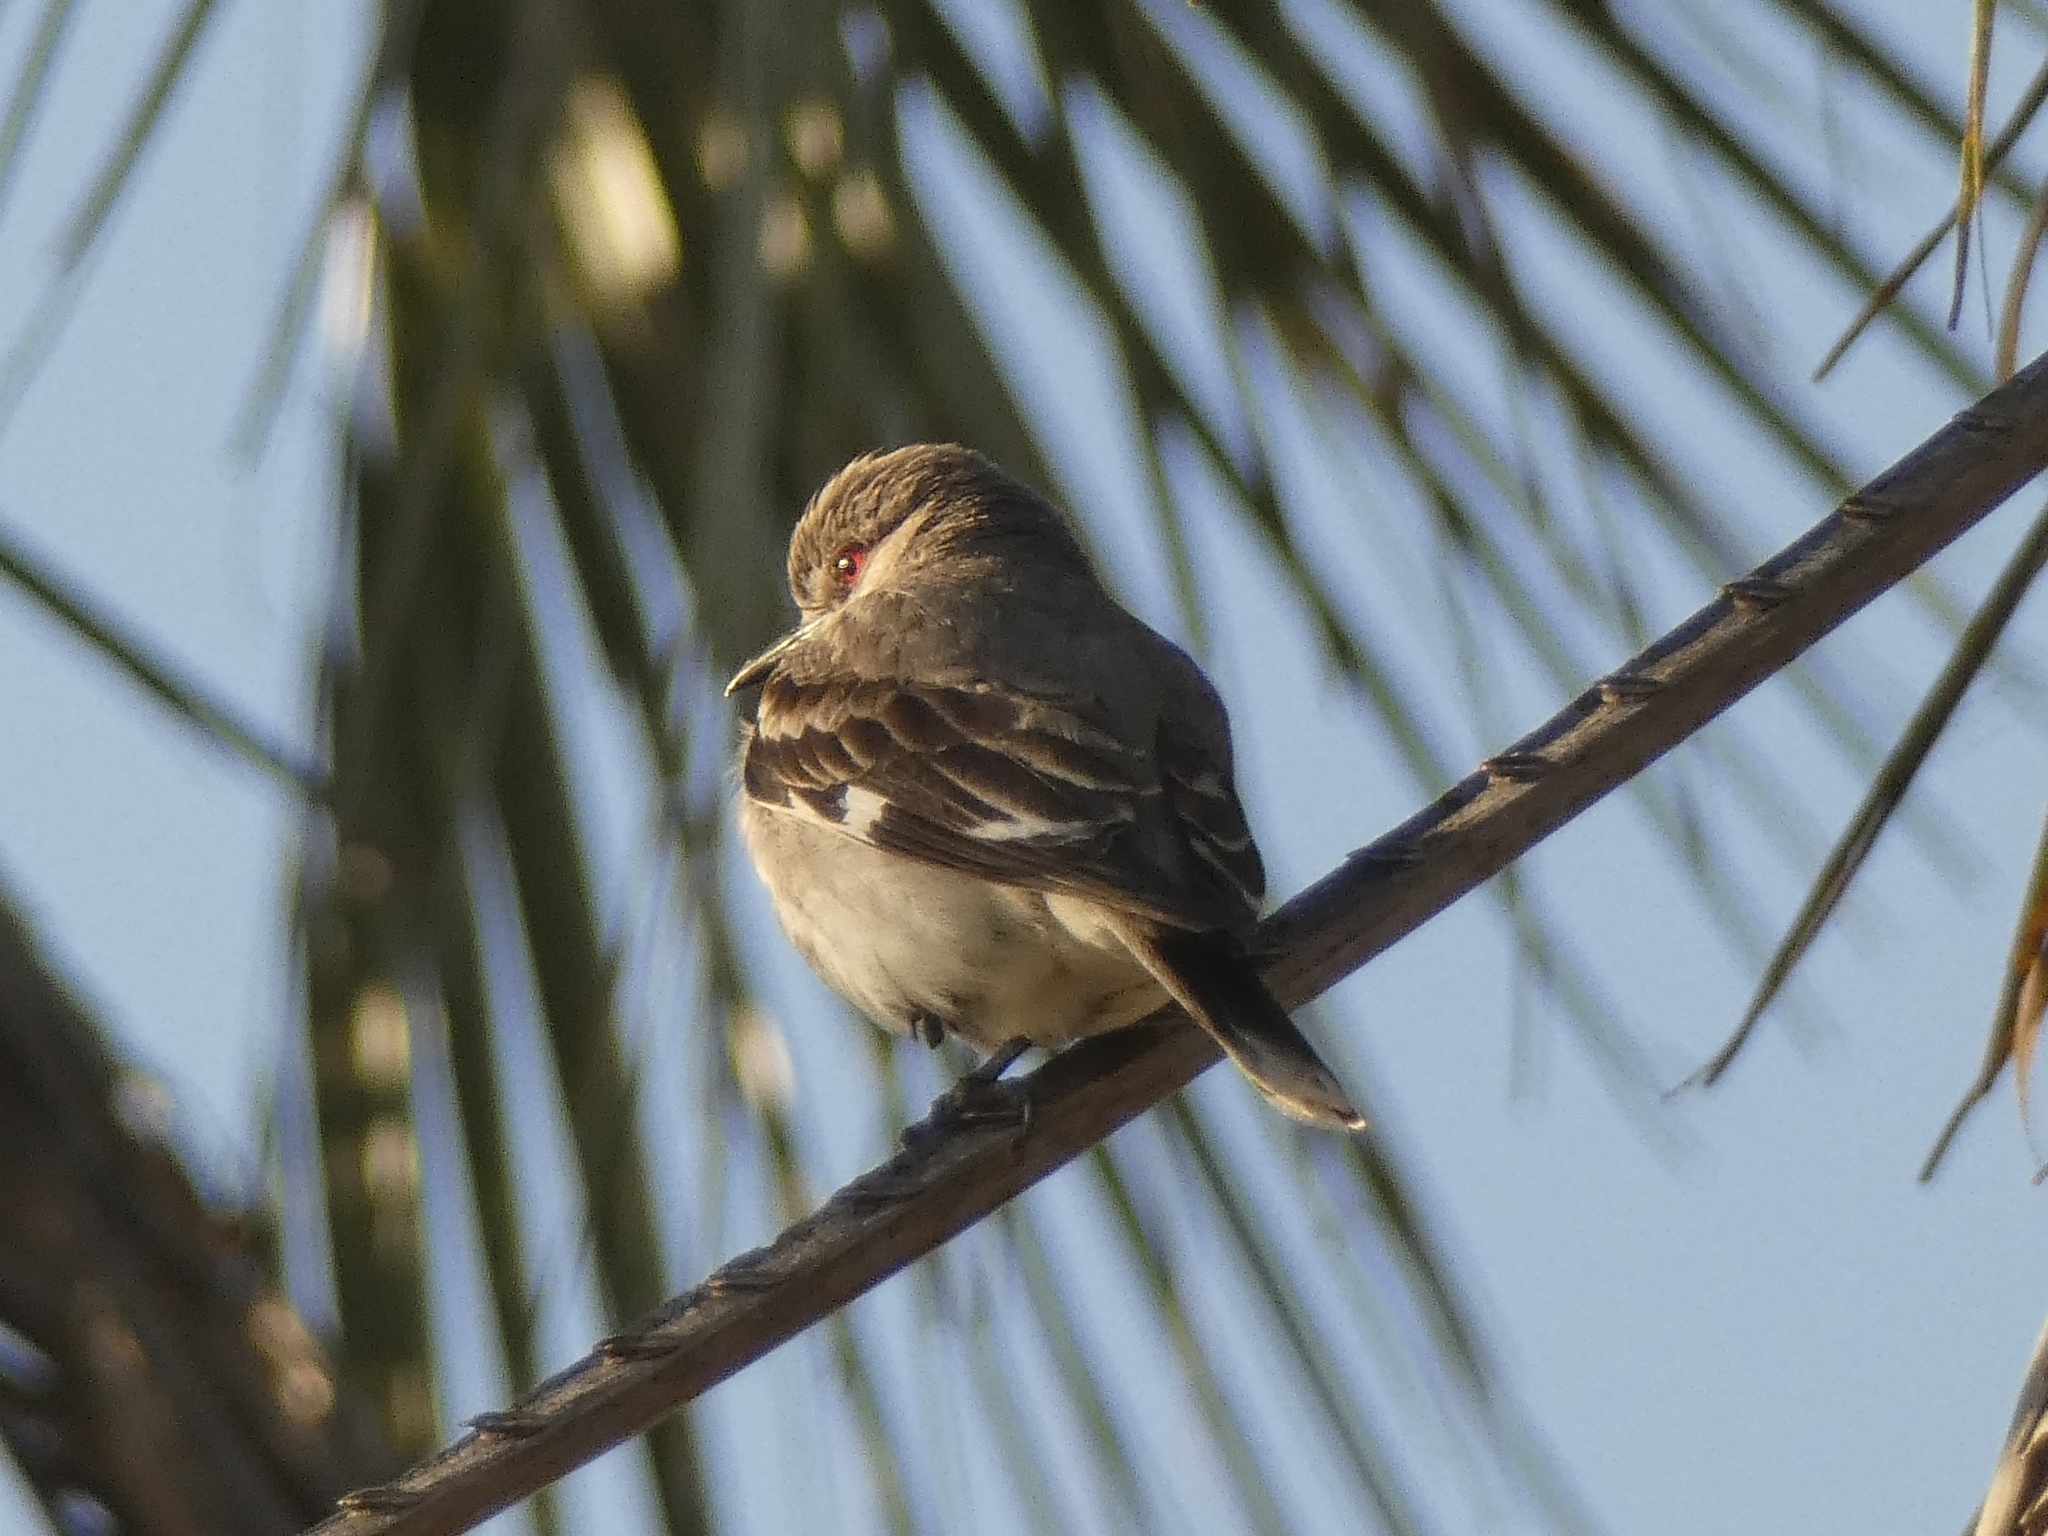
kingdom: Animalia
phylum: Chordata
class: Aves
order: Passeriformes
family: Tyrannidae
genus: Xolmis
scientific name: Xolmis cinereus
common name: Grey monjita
